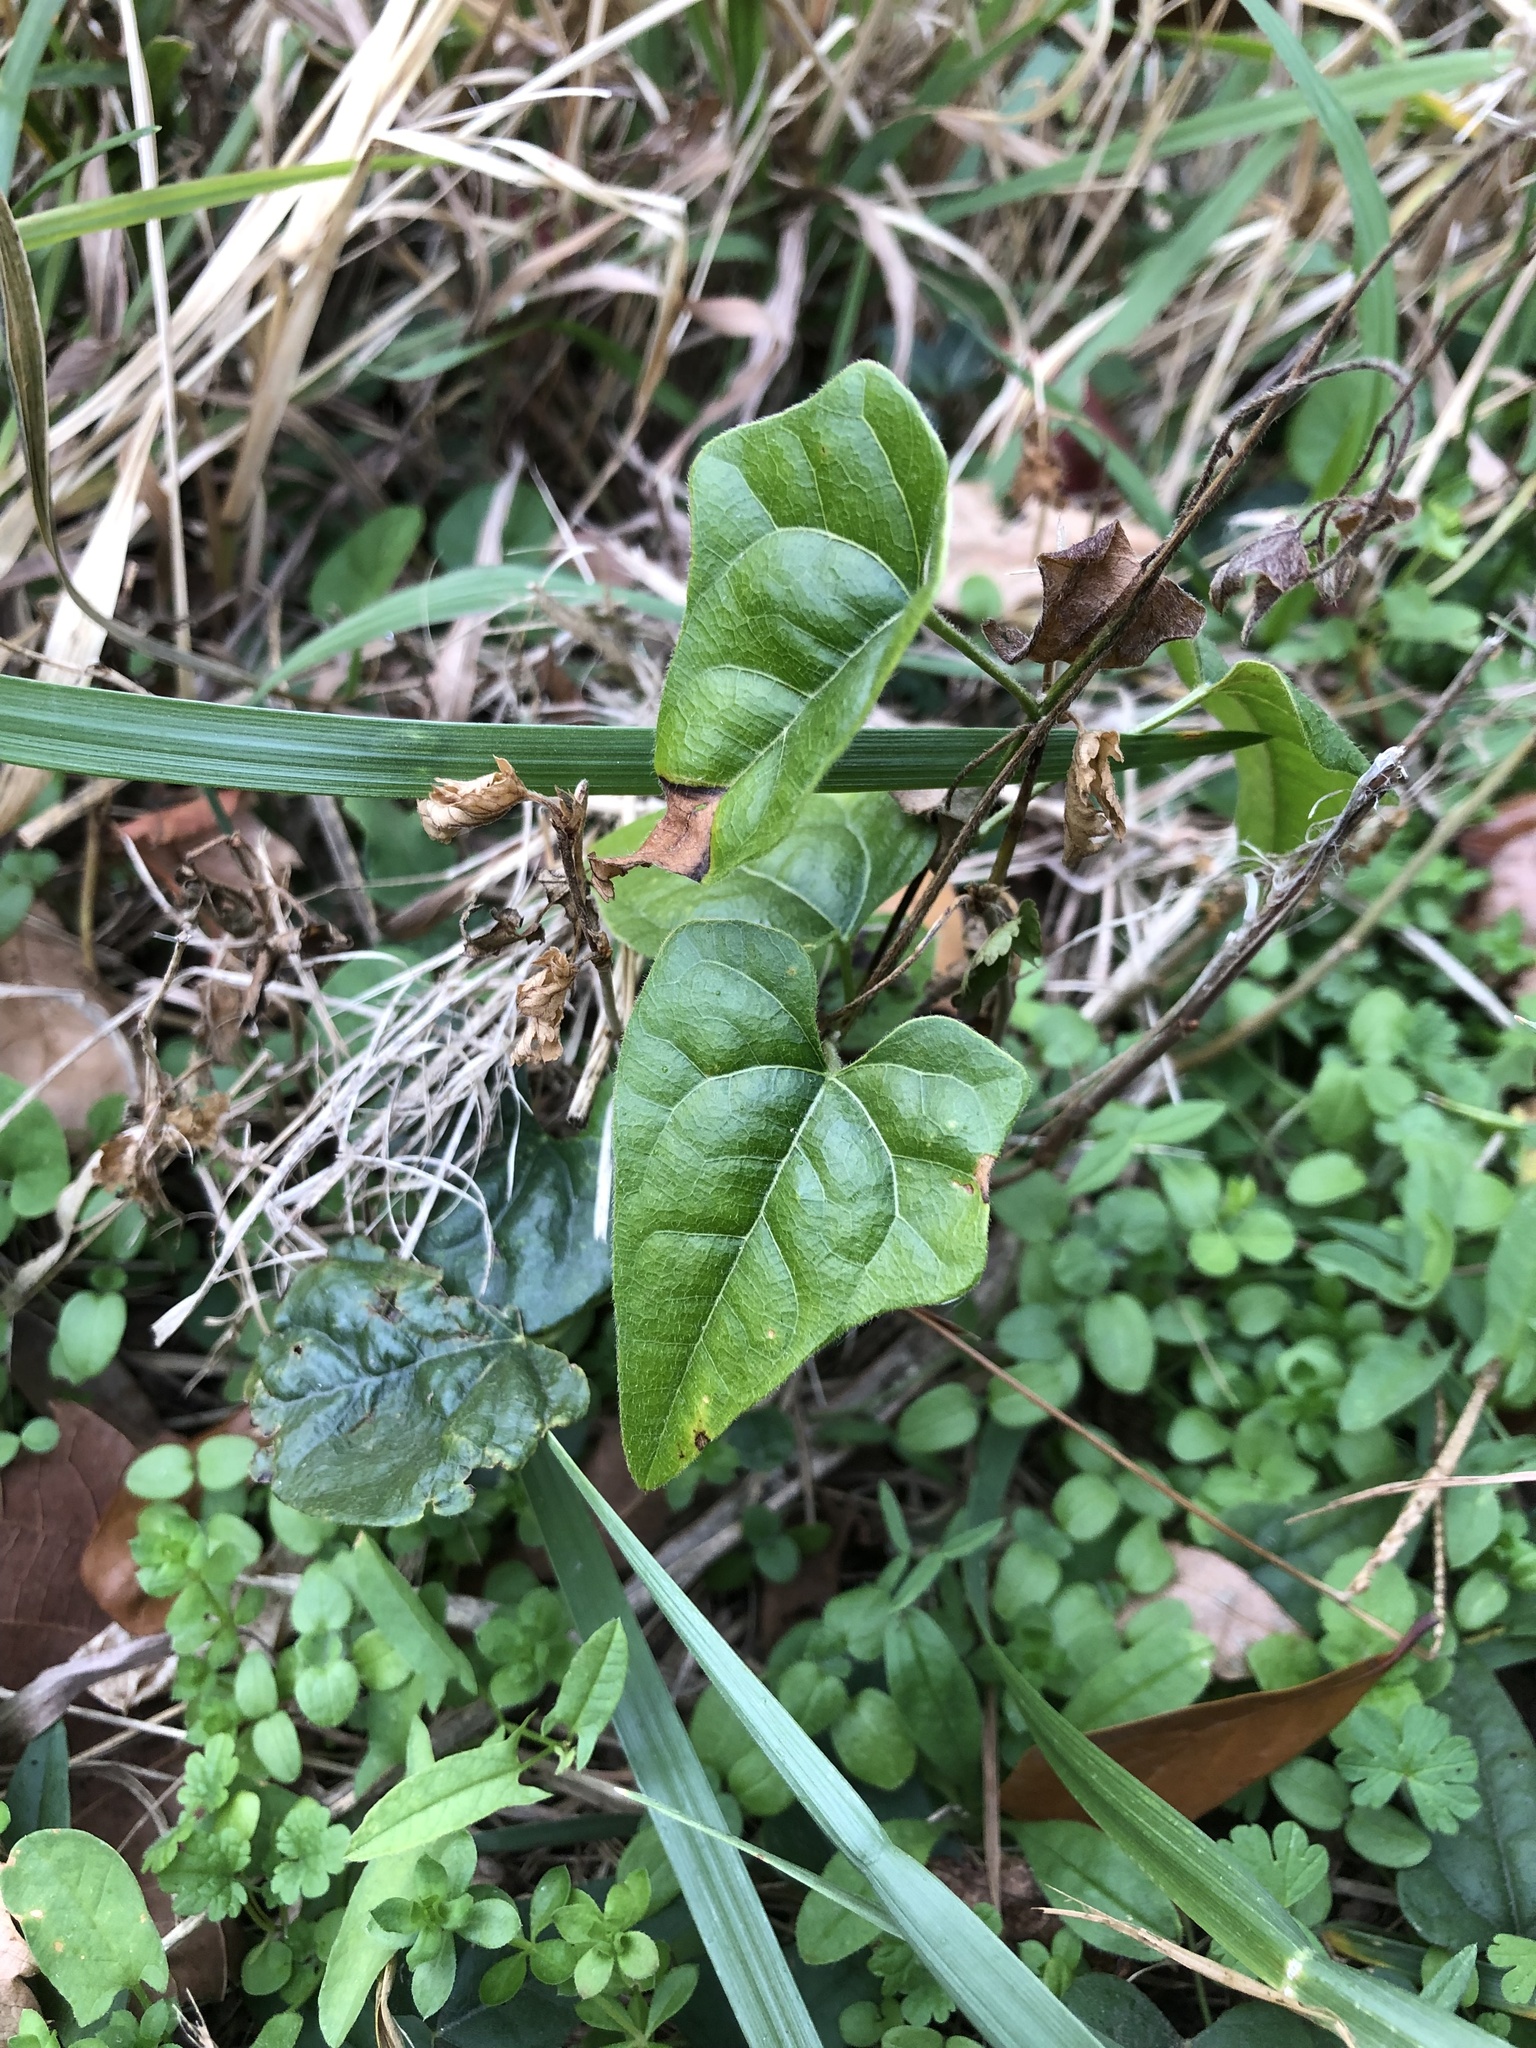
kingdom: Plantae
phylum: Tracheophyta
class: Magnoliopsida
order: Ranunculales
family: Menispermaceae
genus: Cocculus
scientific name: Cocculus carolinus
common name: Carolina moonseed
